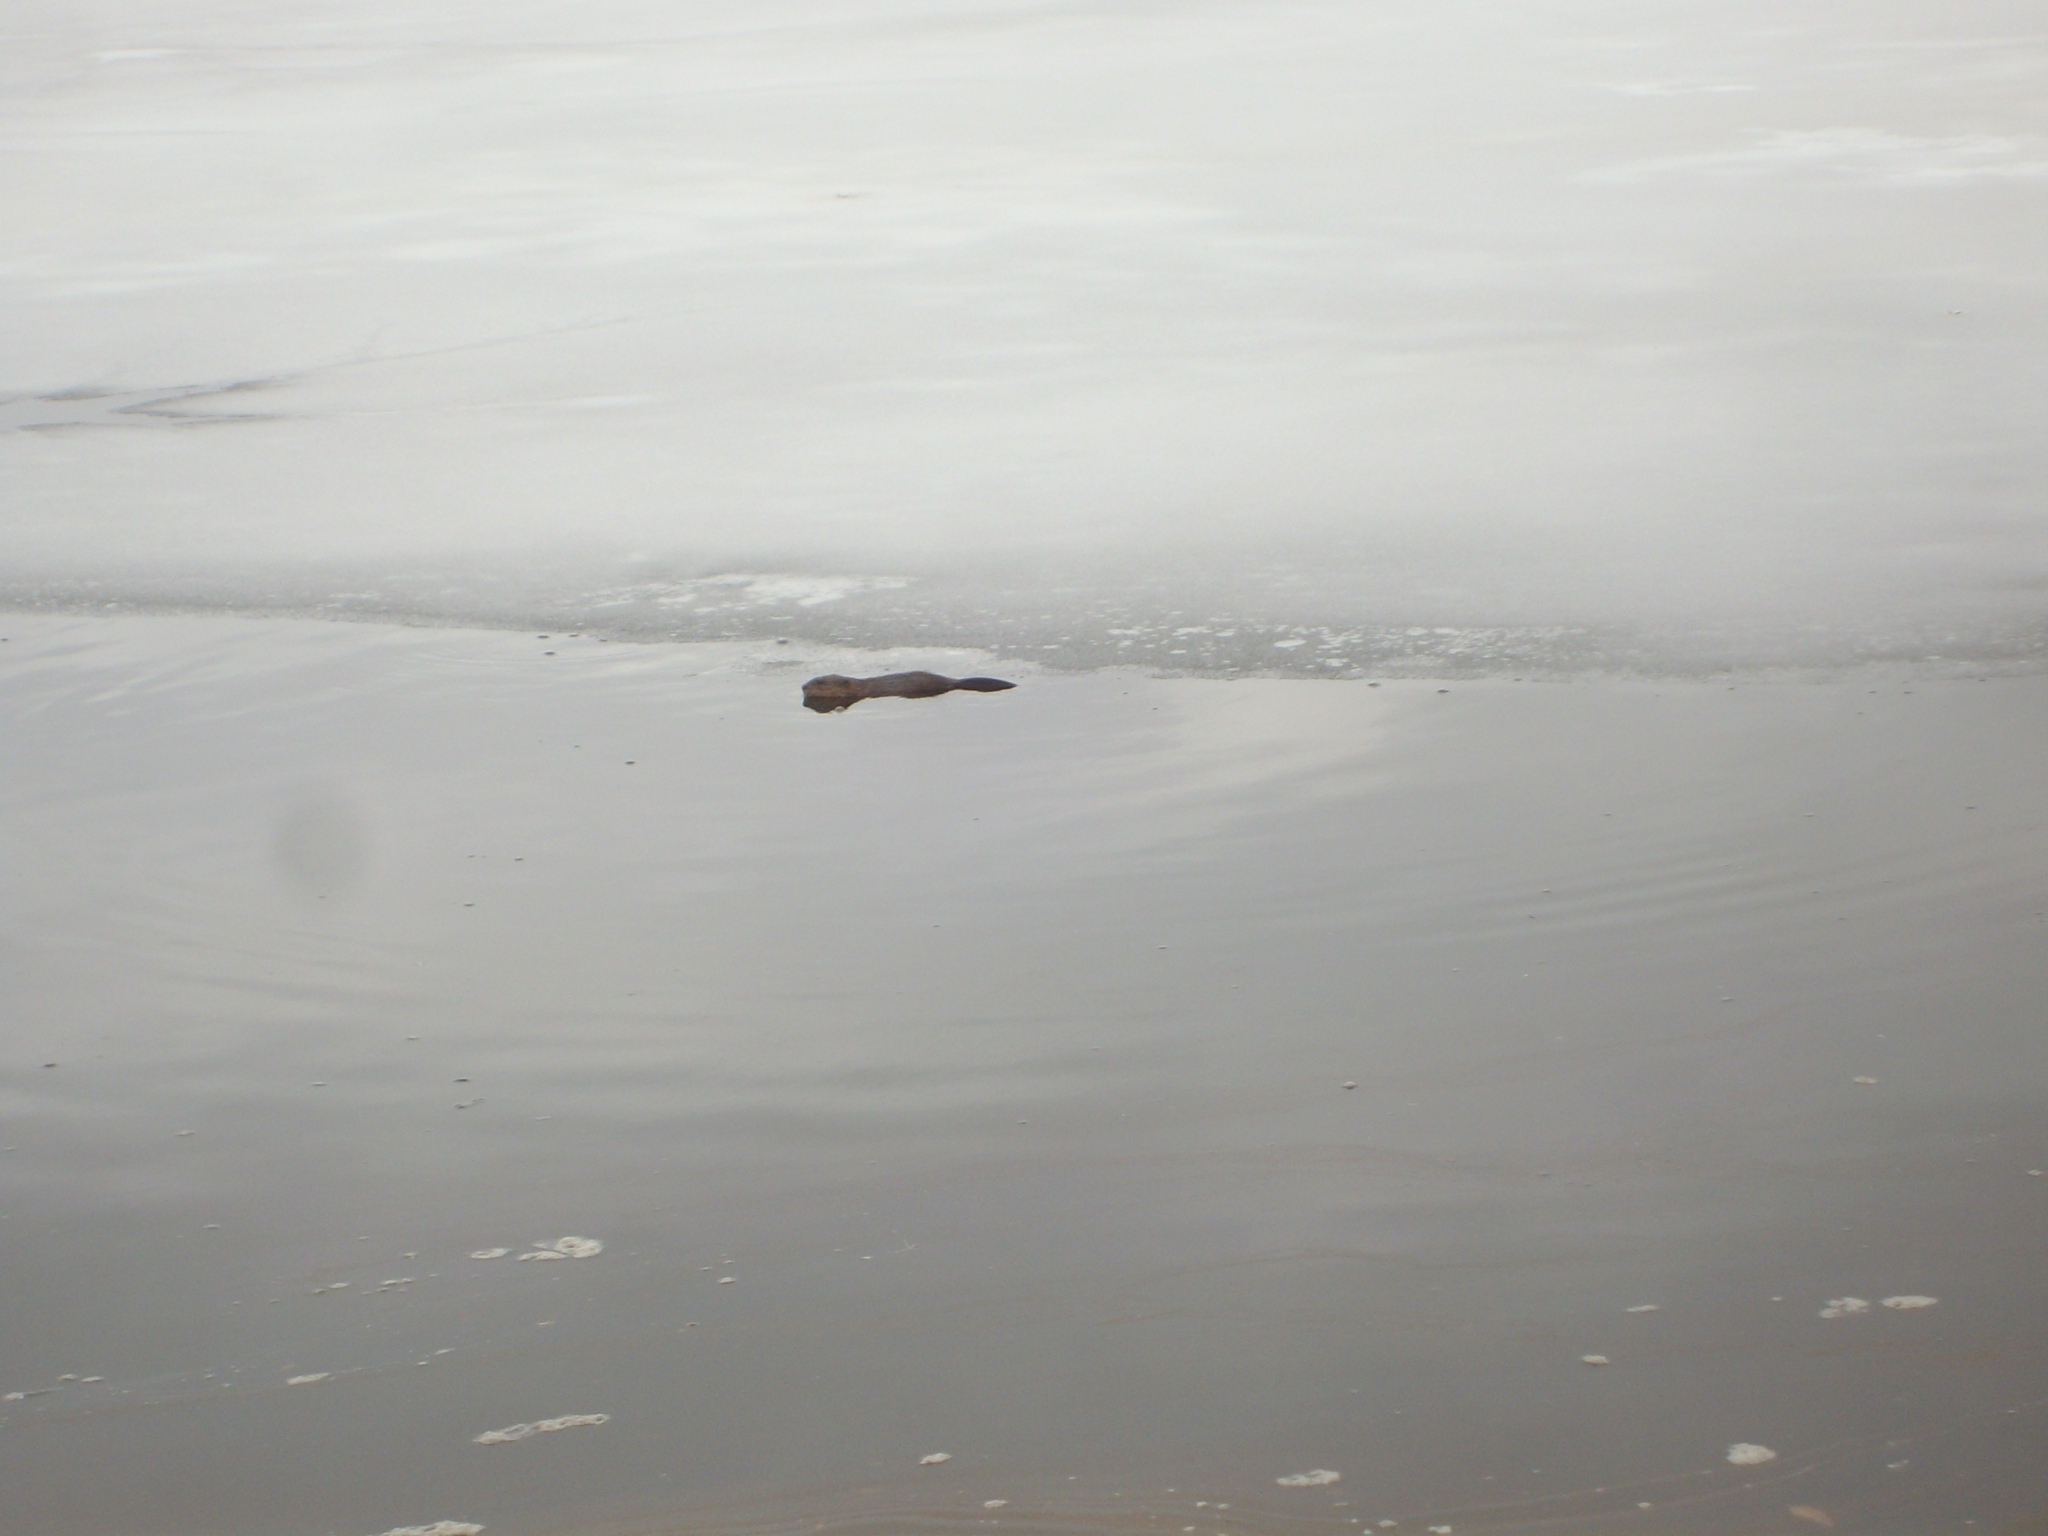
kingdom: Animalia
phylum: Chordata
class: Mammalia
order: Rodentia
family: Cricetidae
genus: Ondatra
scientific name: Ondatra zibethicus
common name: Muskrat
